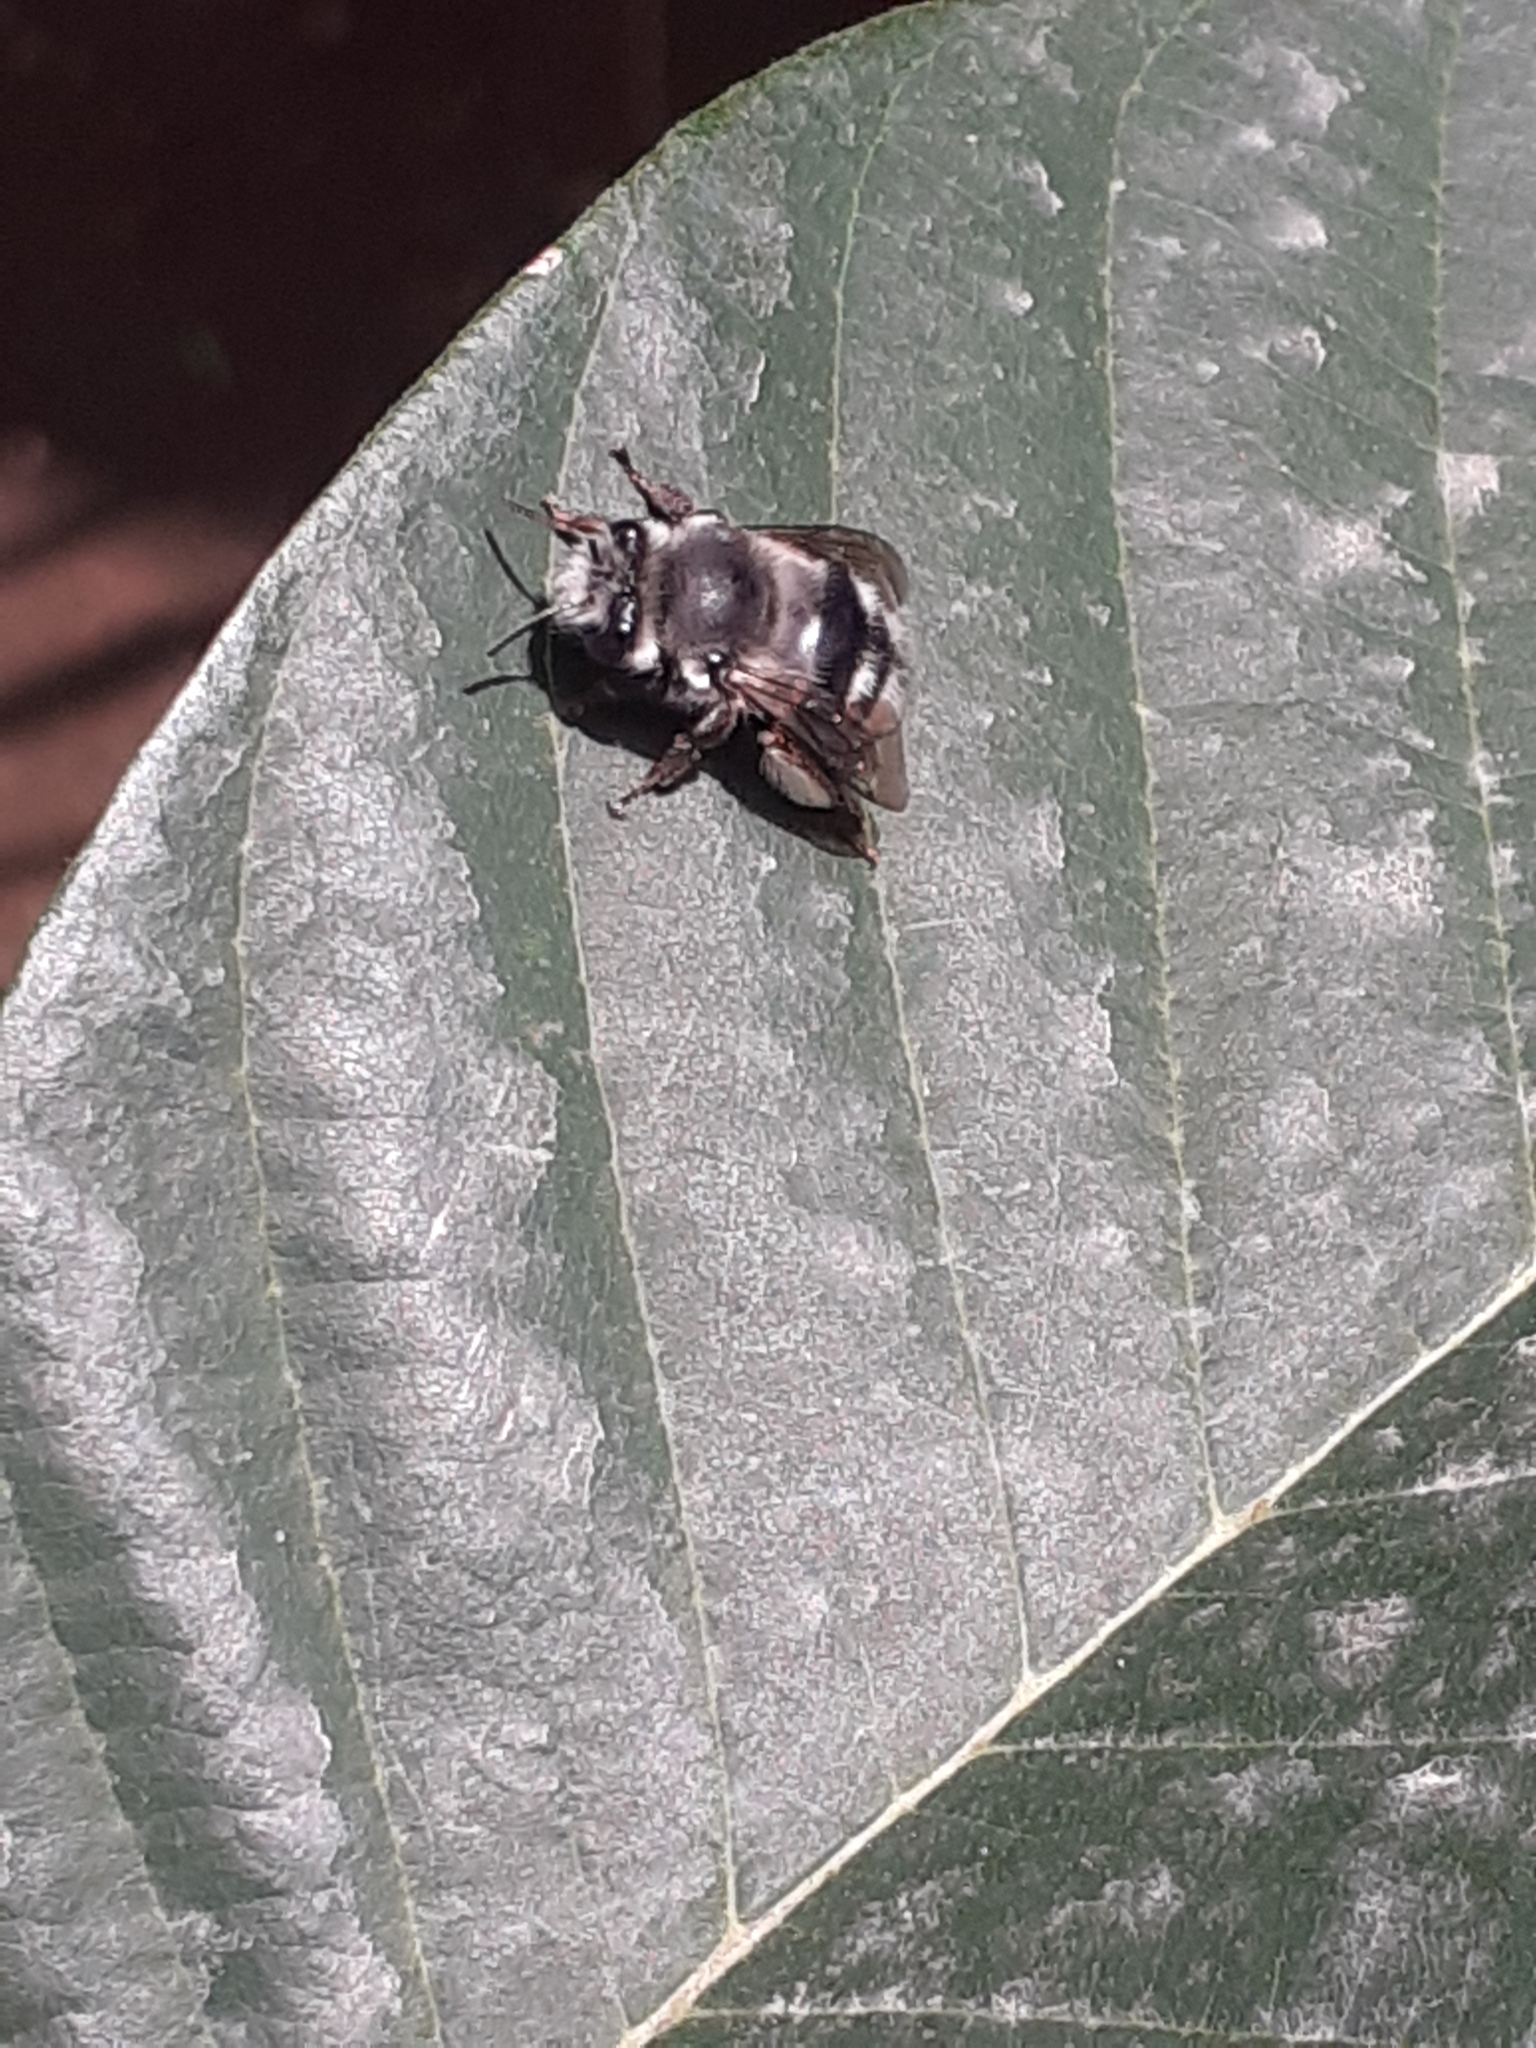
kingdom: Animalia
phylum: Arthropoda
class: Insecta
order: Hymenoptera
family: Apidae
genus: Anthophora
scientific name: Anthophora alluaudi
